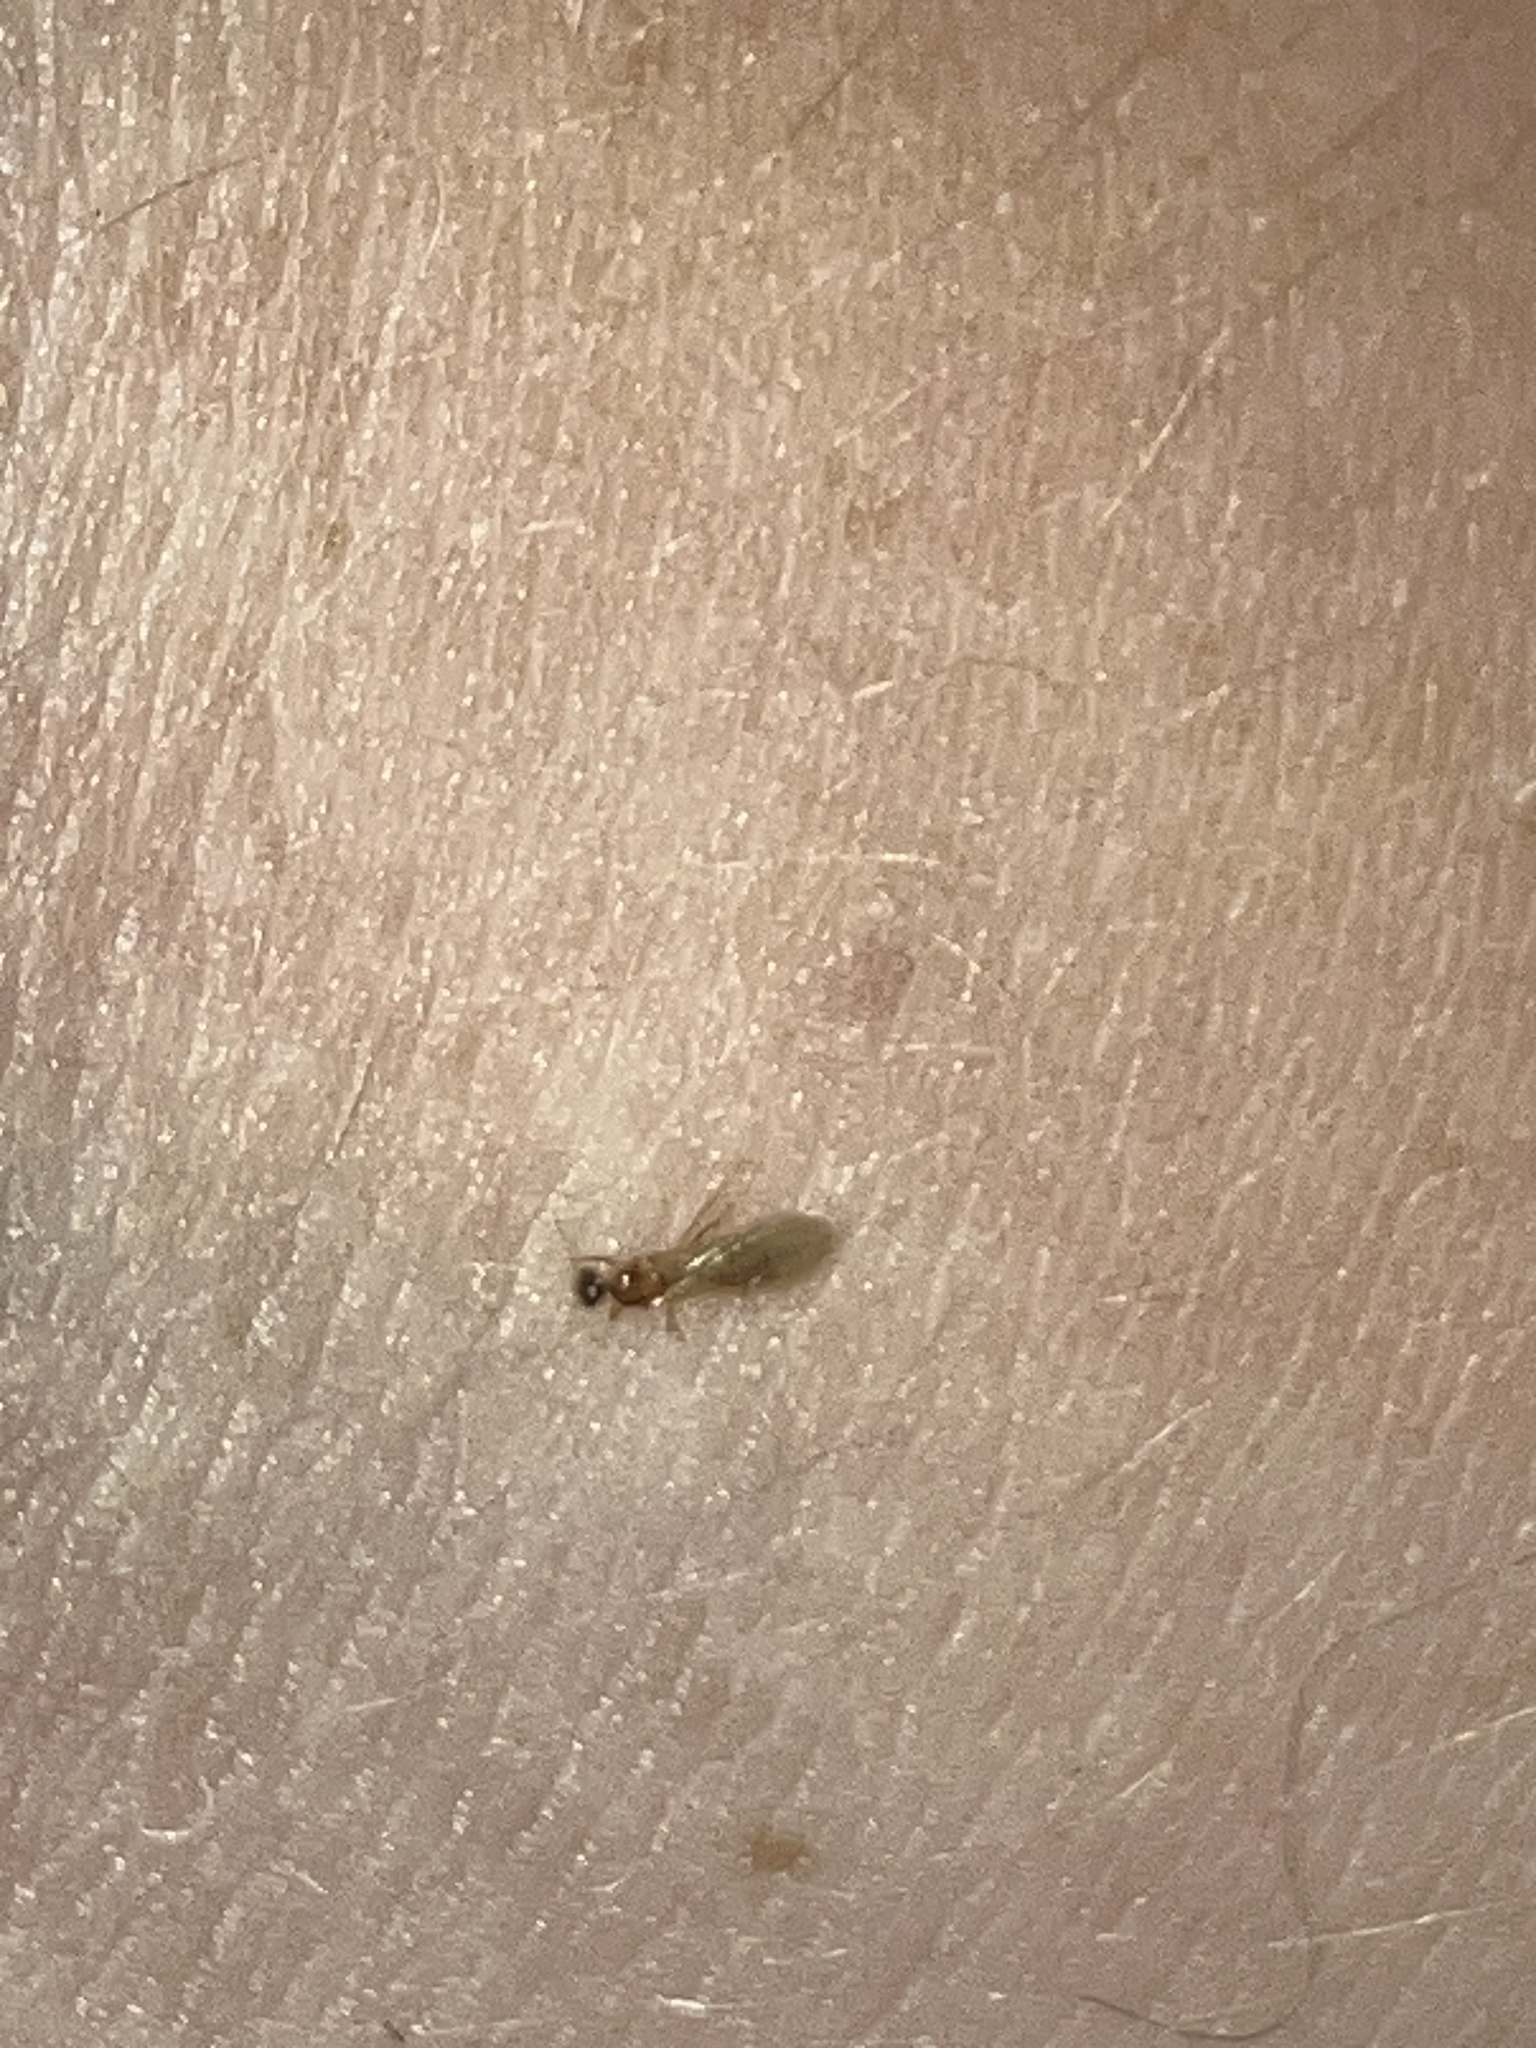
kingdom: Animalia
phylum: Arthropoda
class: Insecta
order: Hymenoptera
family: Formicidae
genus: Pheidole
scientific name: Pheidole
